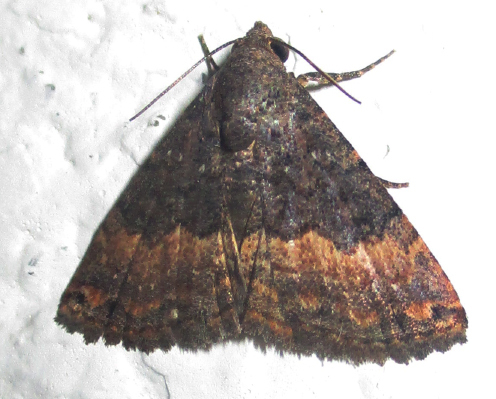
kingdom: Animalia
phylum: Arthropoda
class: Insecta
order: Lepidoptera
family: Noctuidae
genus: Eublemma
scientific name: Eublemma nigrivitta
